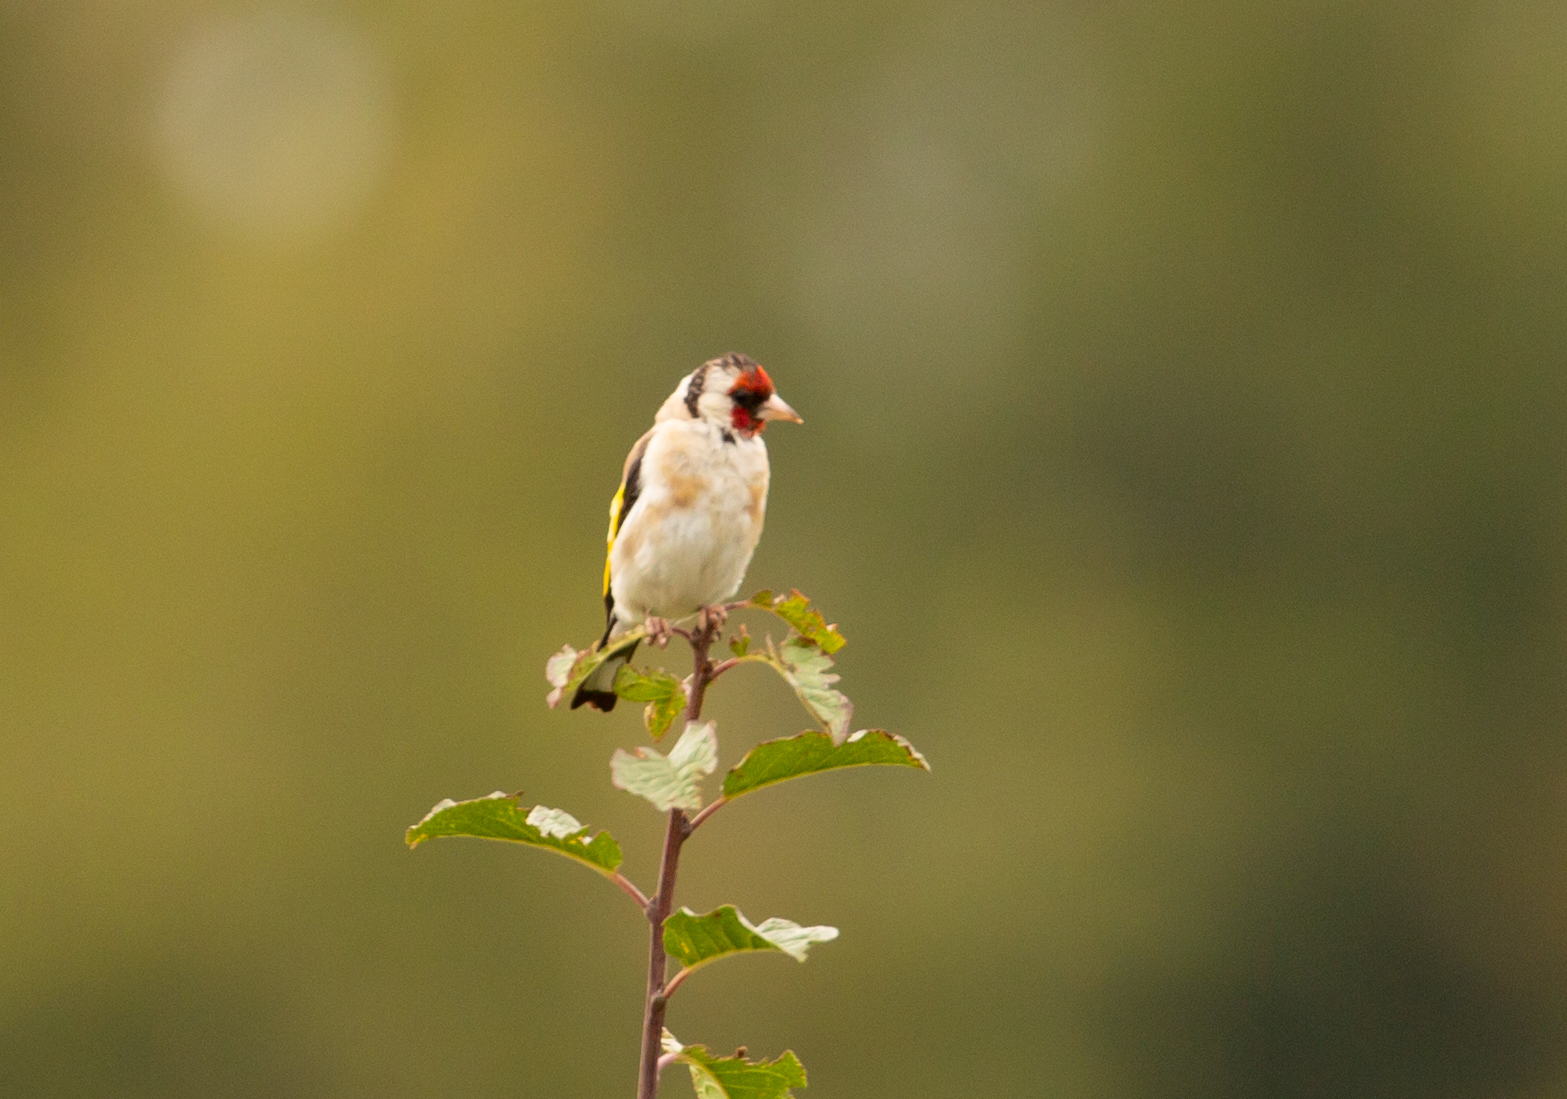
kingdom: Animalia
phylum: Chordata
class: Aves
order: Passeriformes
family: Fringillidae
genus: Carduelis
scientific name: Carduelis carduelis
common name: European goldfinch
